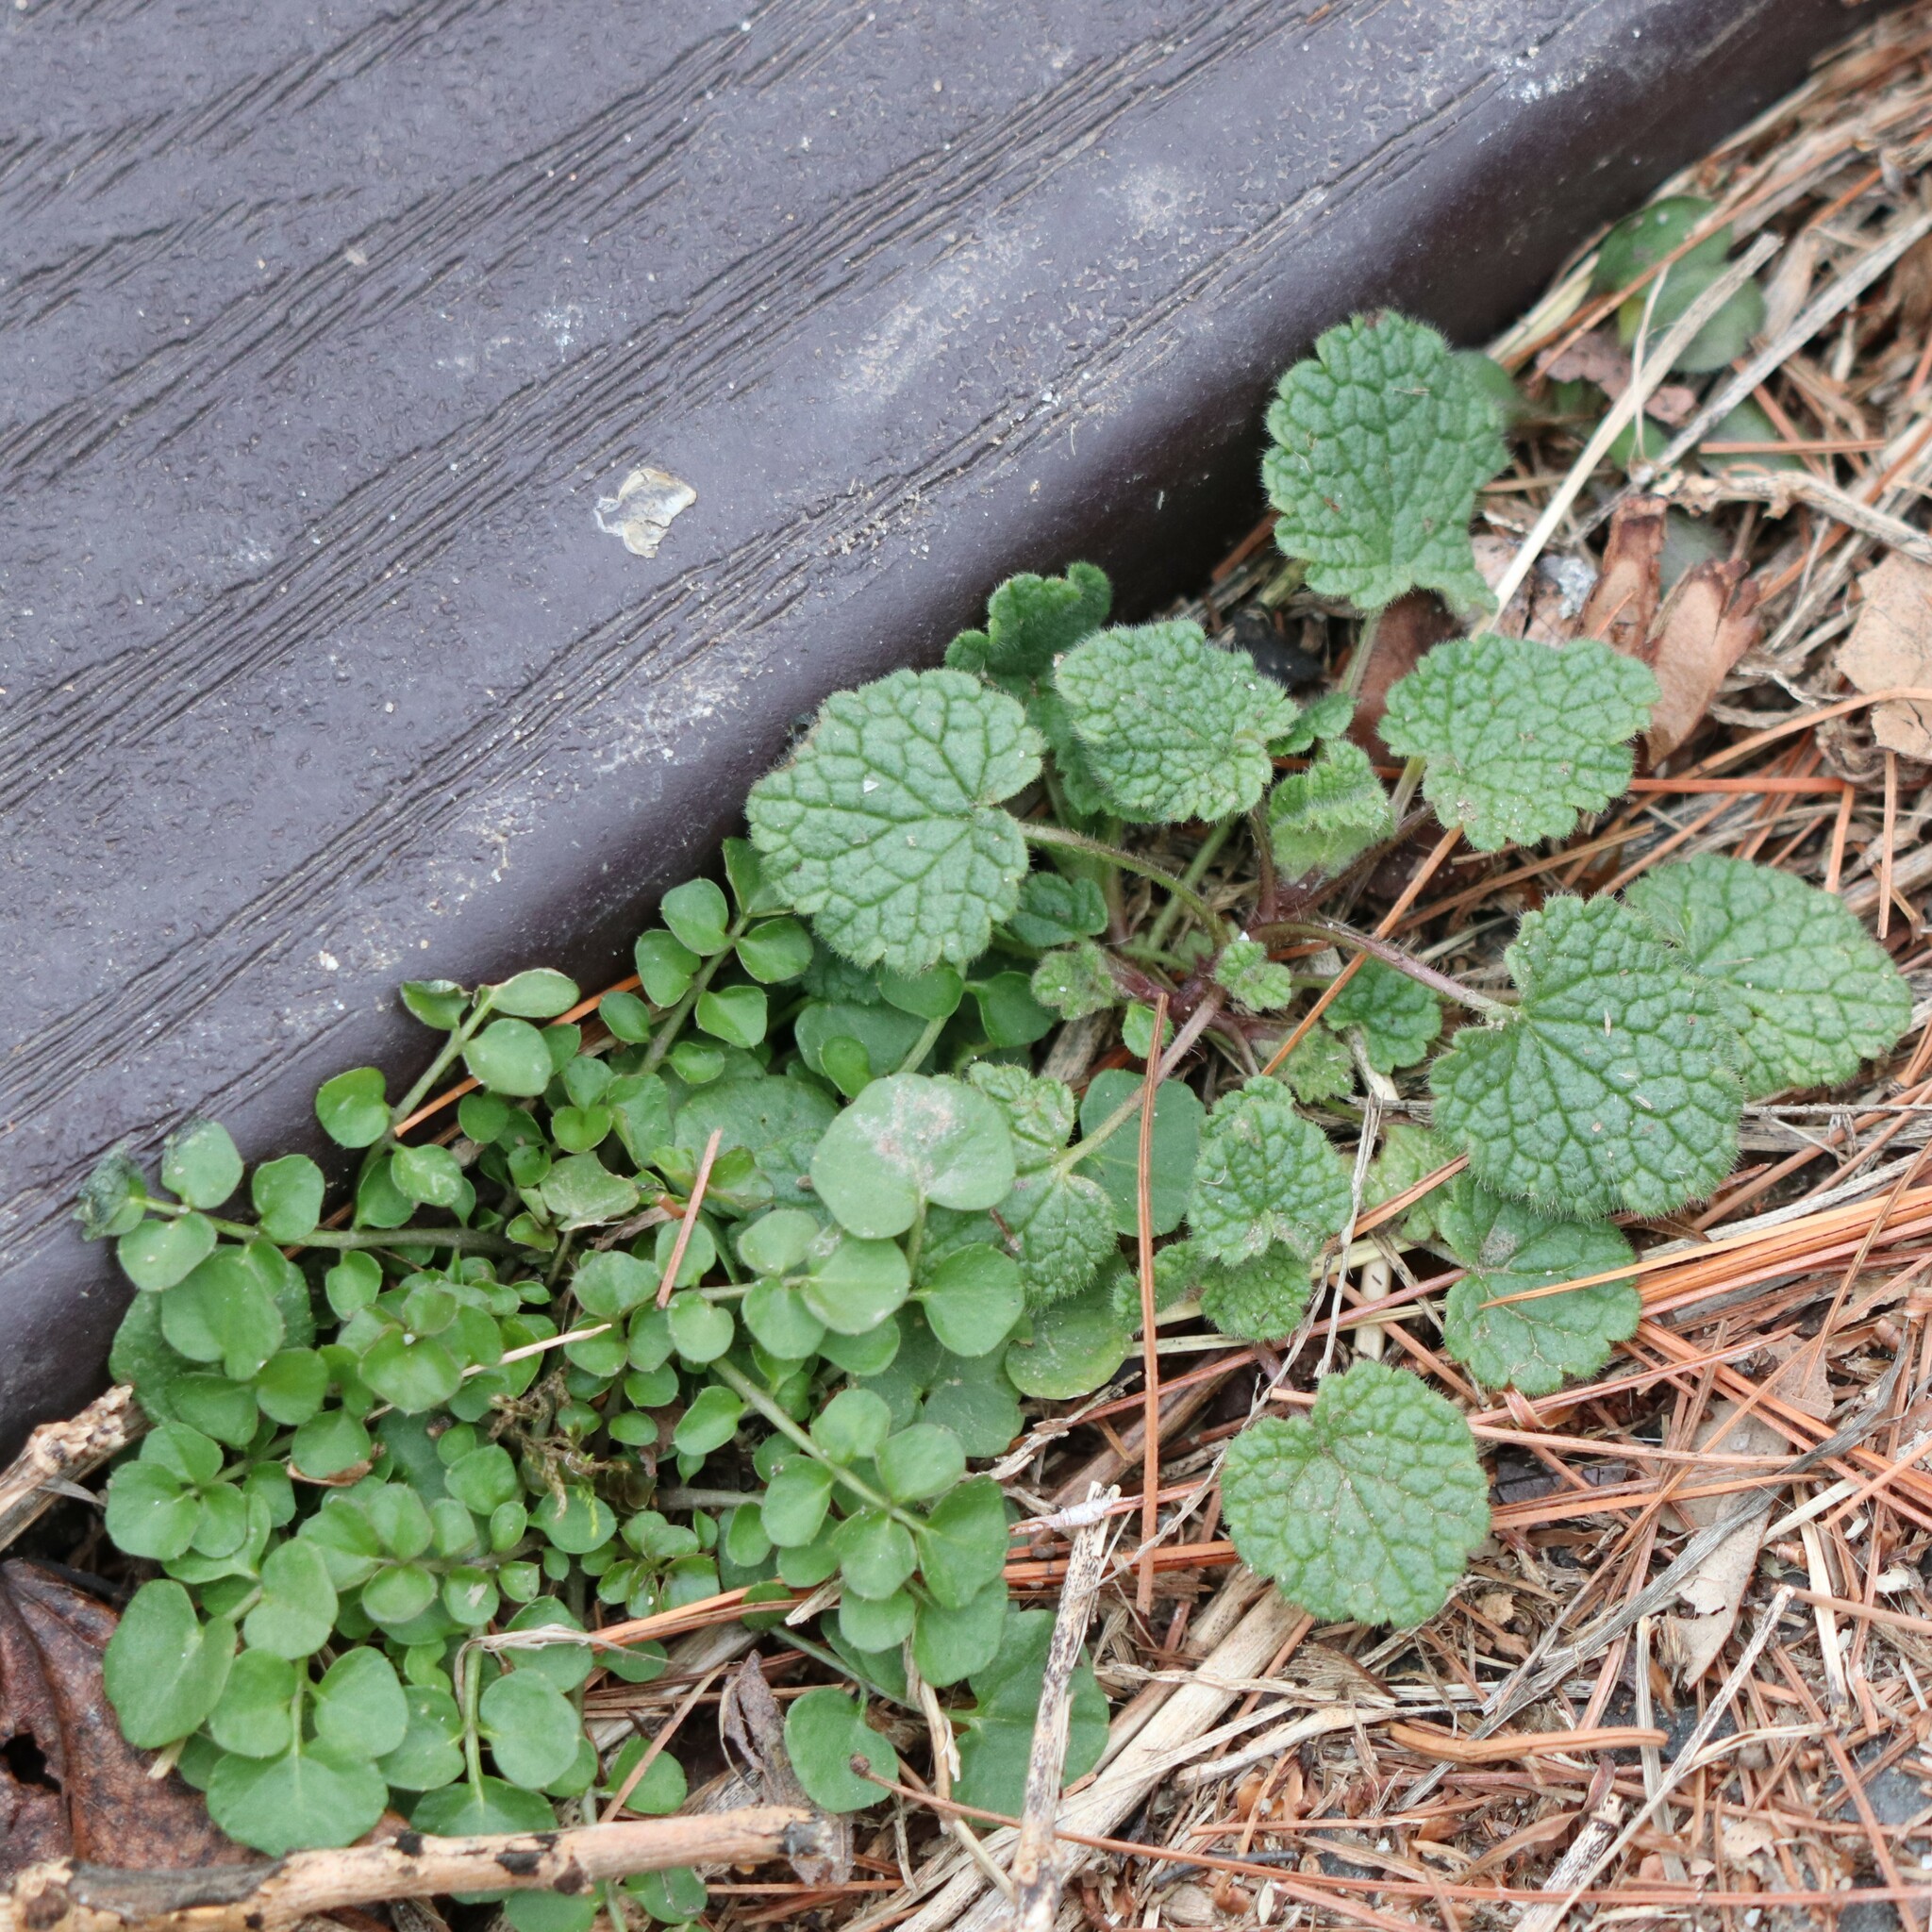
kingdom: Plantae
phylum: Tracheophyta
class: Magnoliopsida
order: Brassicales
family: Brassicaceae
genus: Cardamine
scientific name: Cardamine hirsuta
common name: Hairy bittercress
